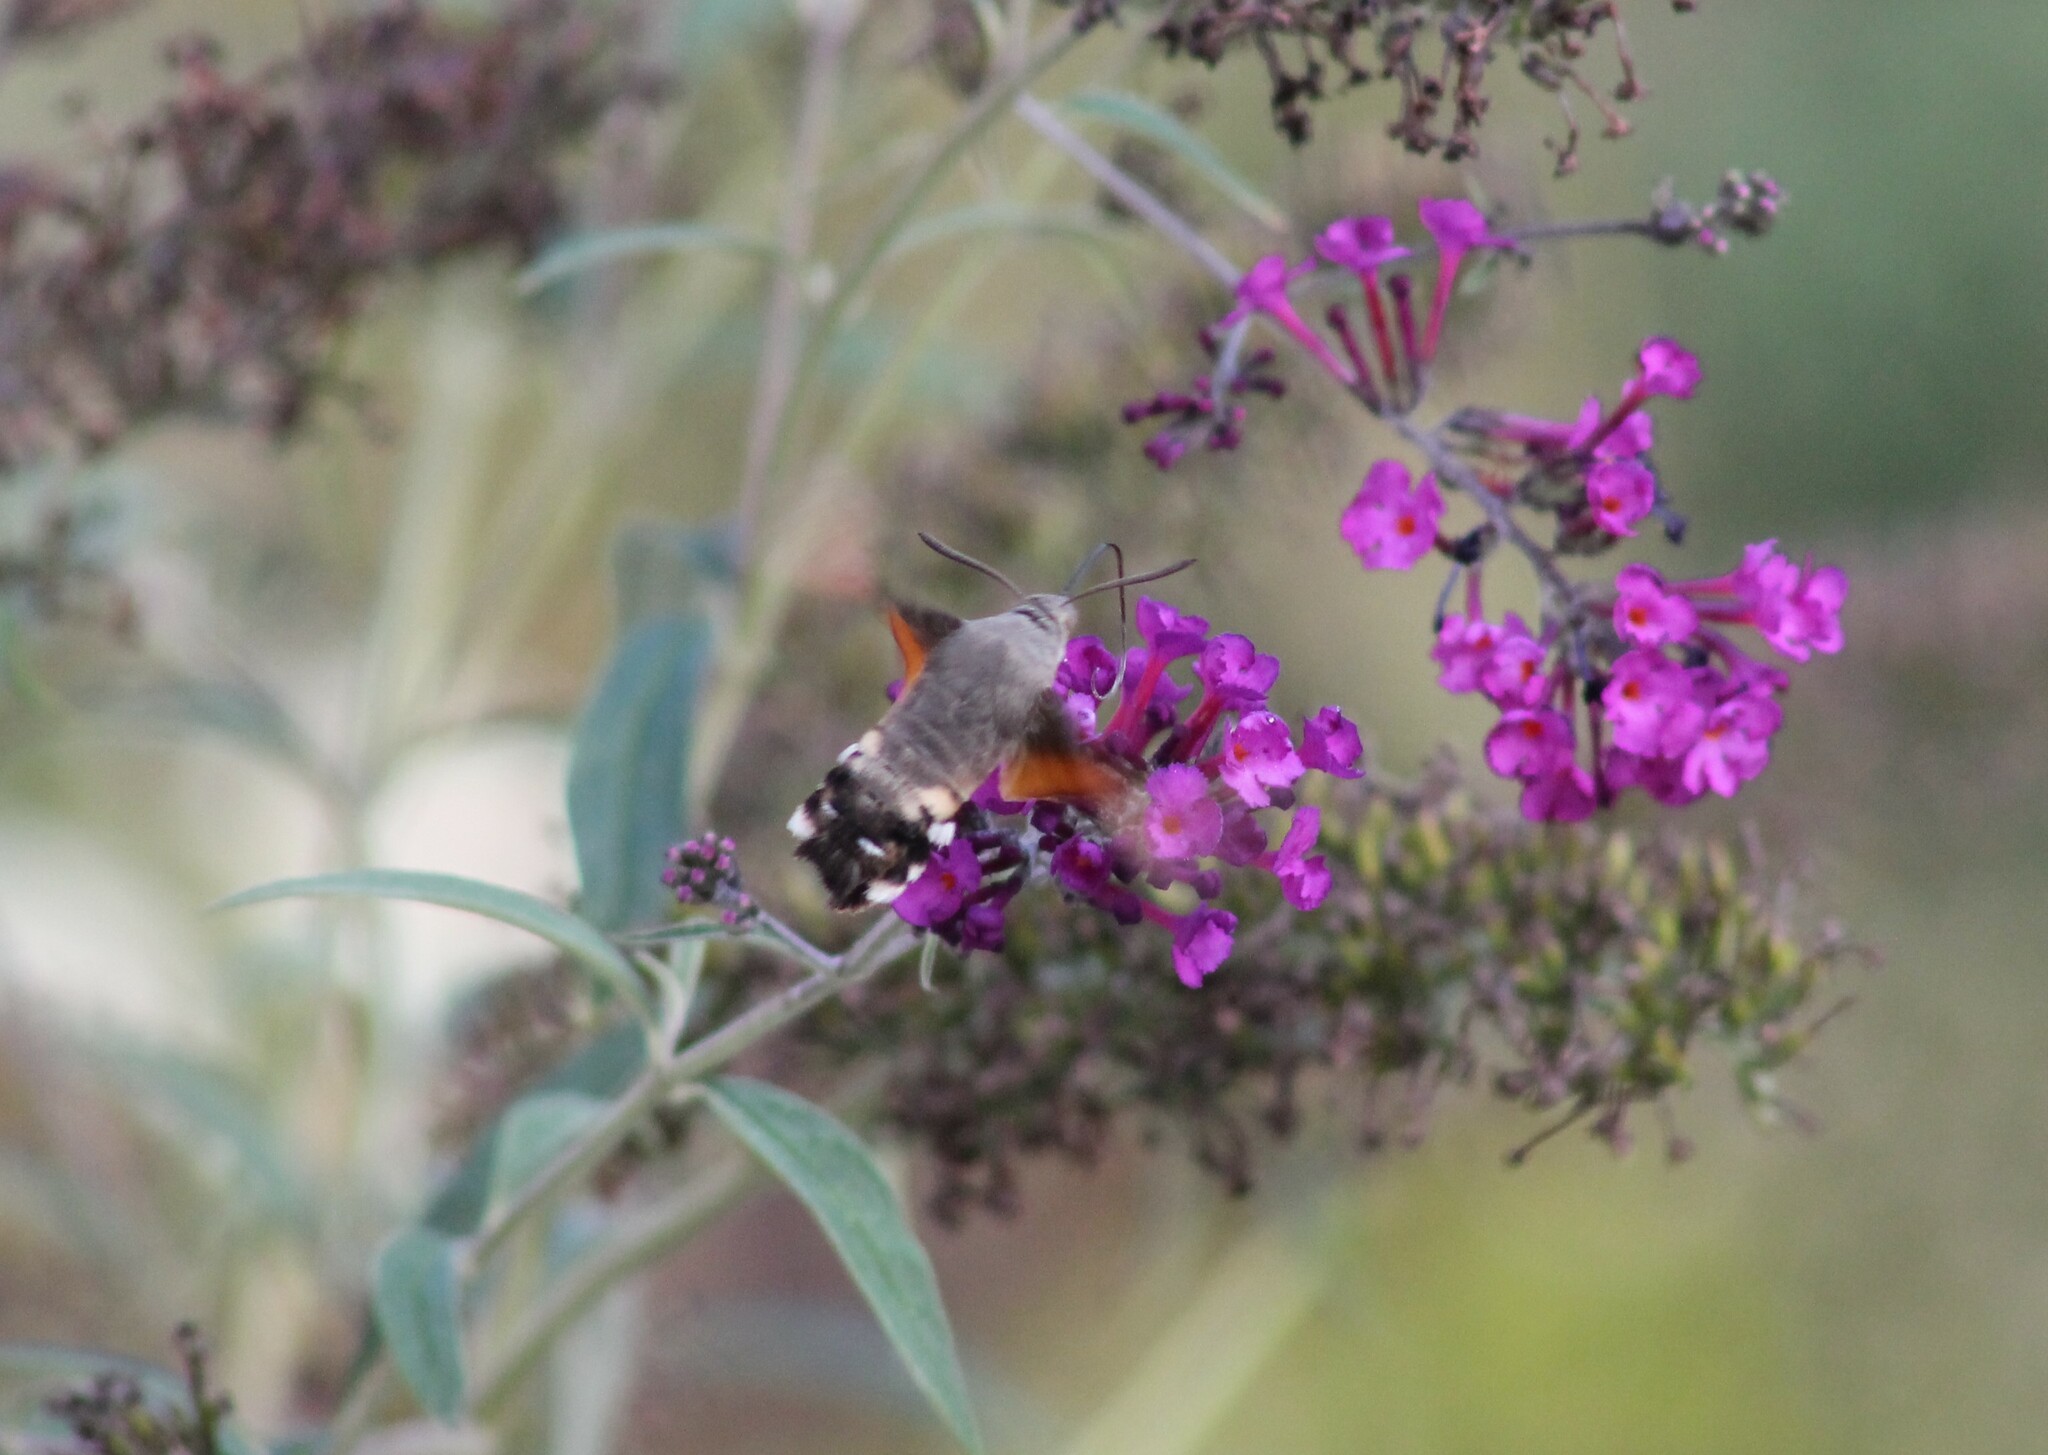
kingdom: Animalia
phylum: Arthropoda
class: Insecta
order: Lepidoptera
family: Sphingidae
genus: Macroglossum
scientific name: Macroglossum stellatarum
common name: Humming-bird hawk-moth
